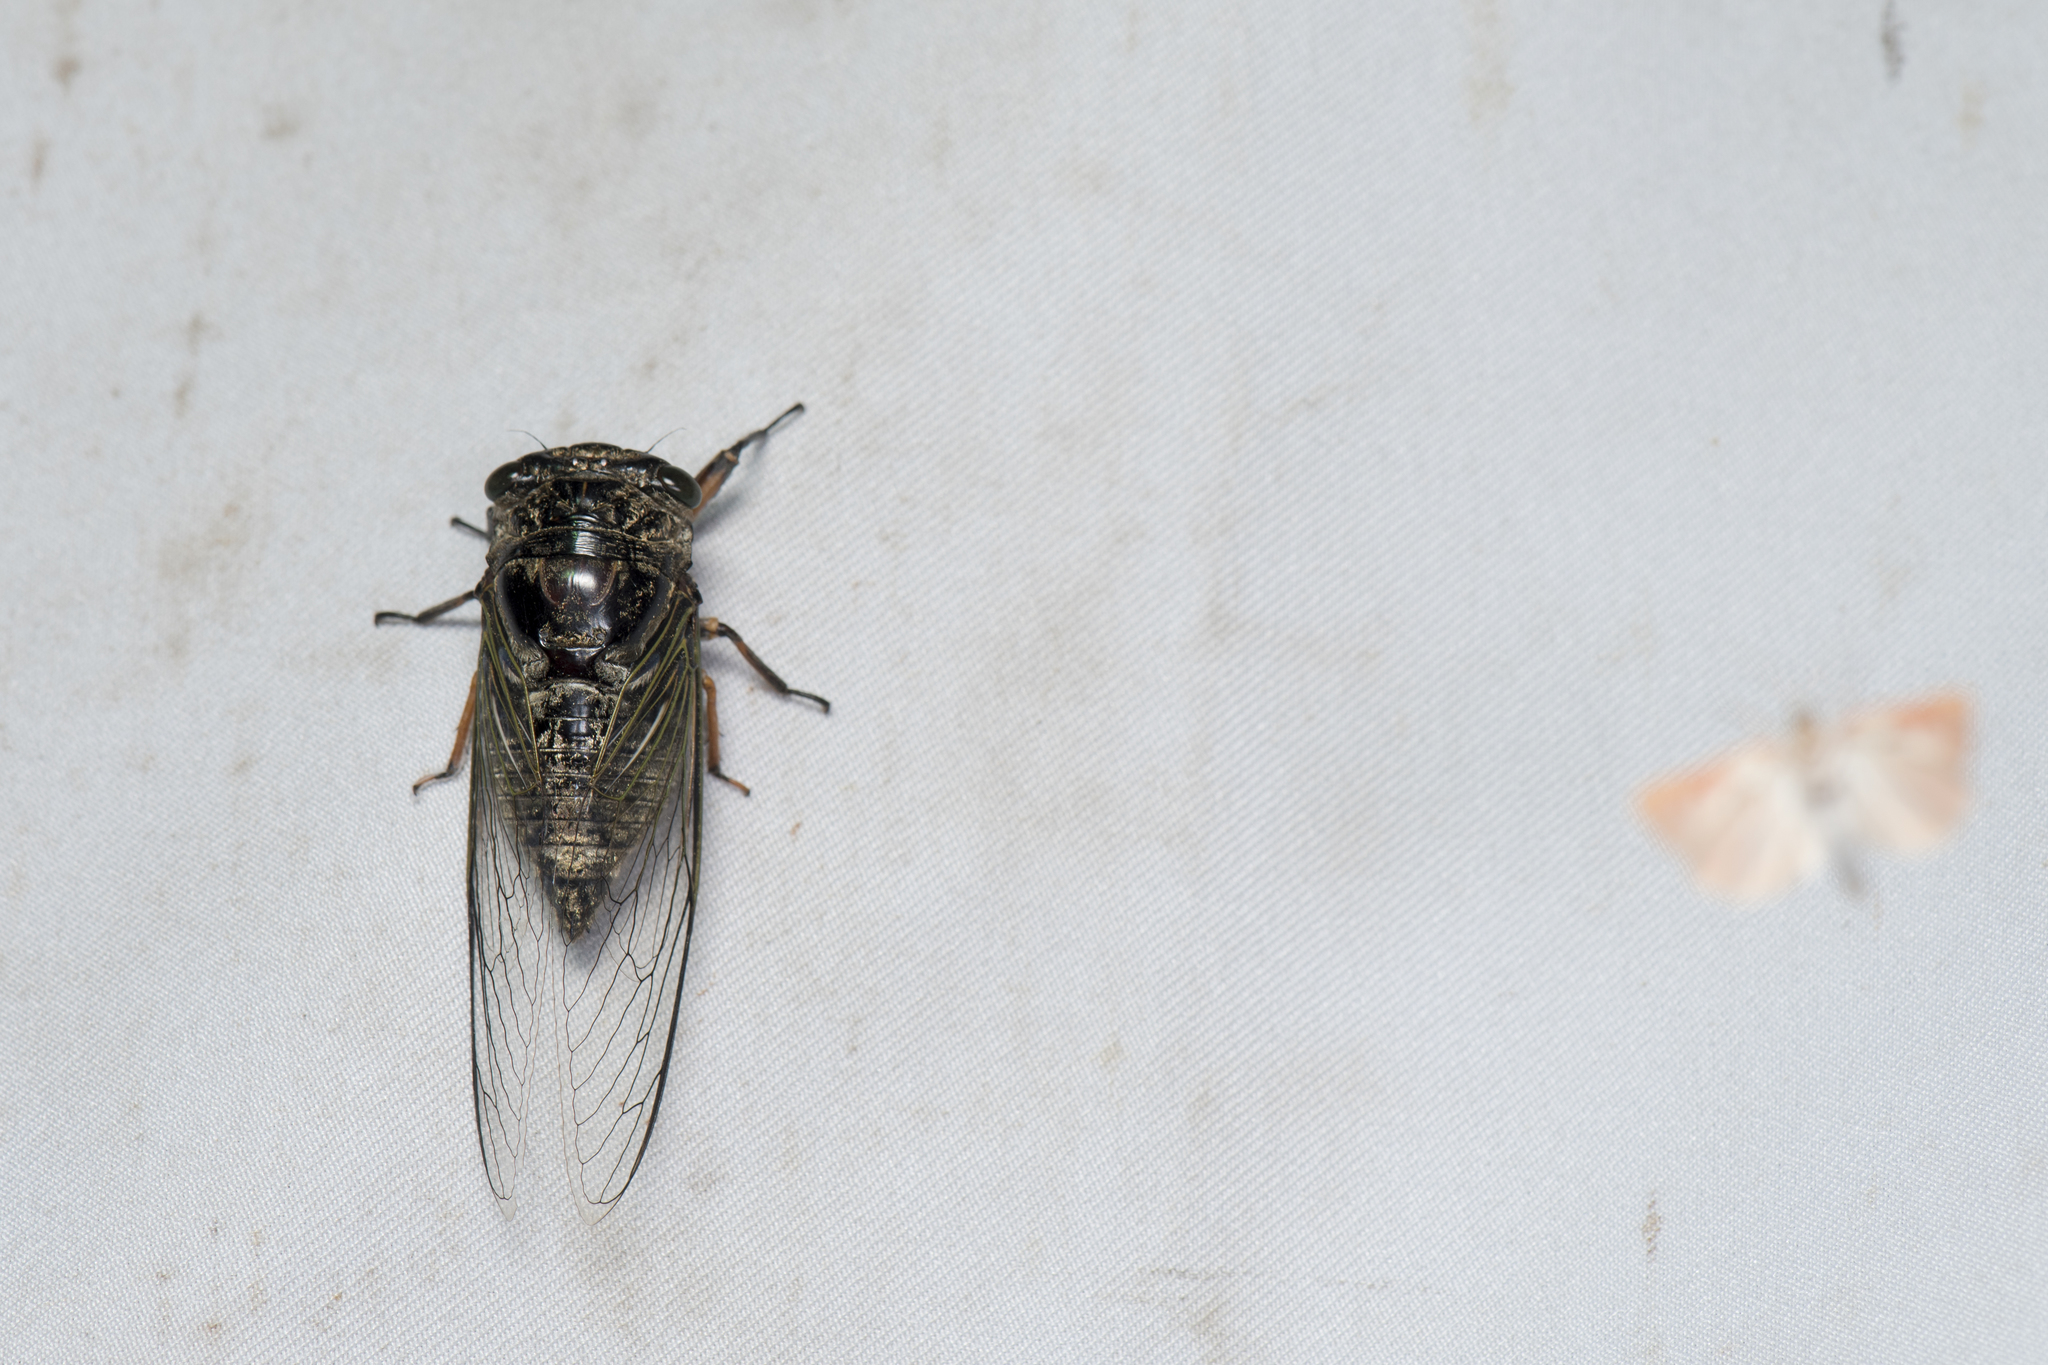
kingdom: Animalia
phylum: Arthropoda
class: Insecta
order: Hemiptera
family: Cicadidae
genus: Cryptotympana
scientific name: Cryptotympana takasagona
